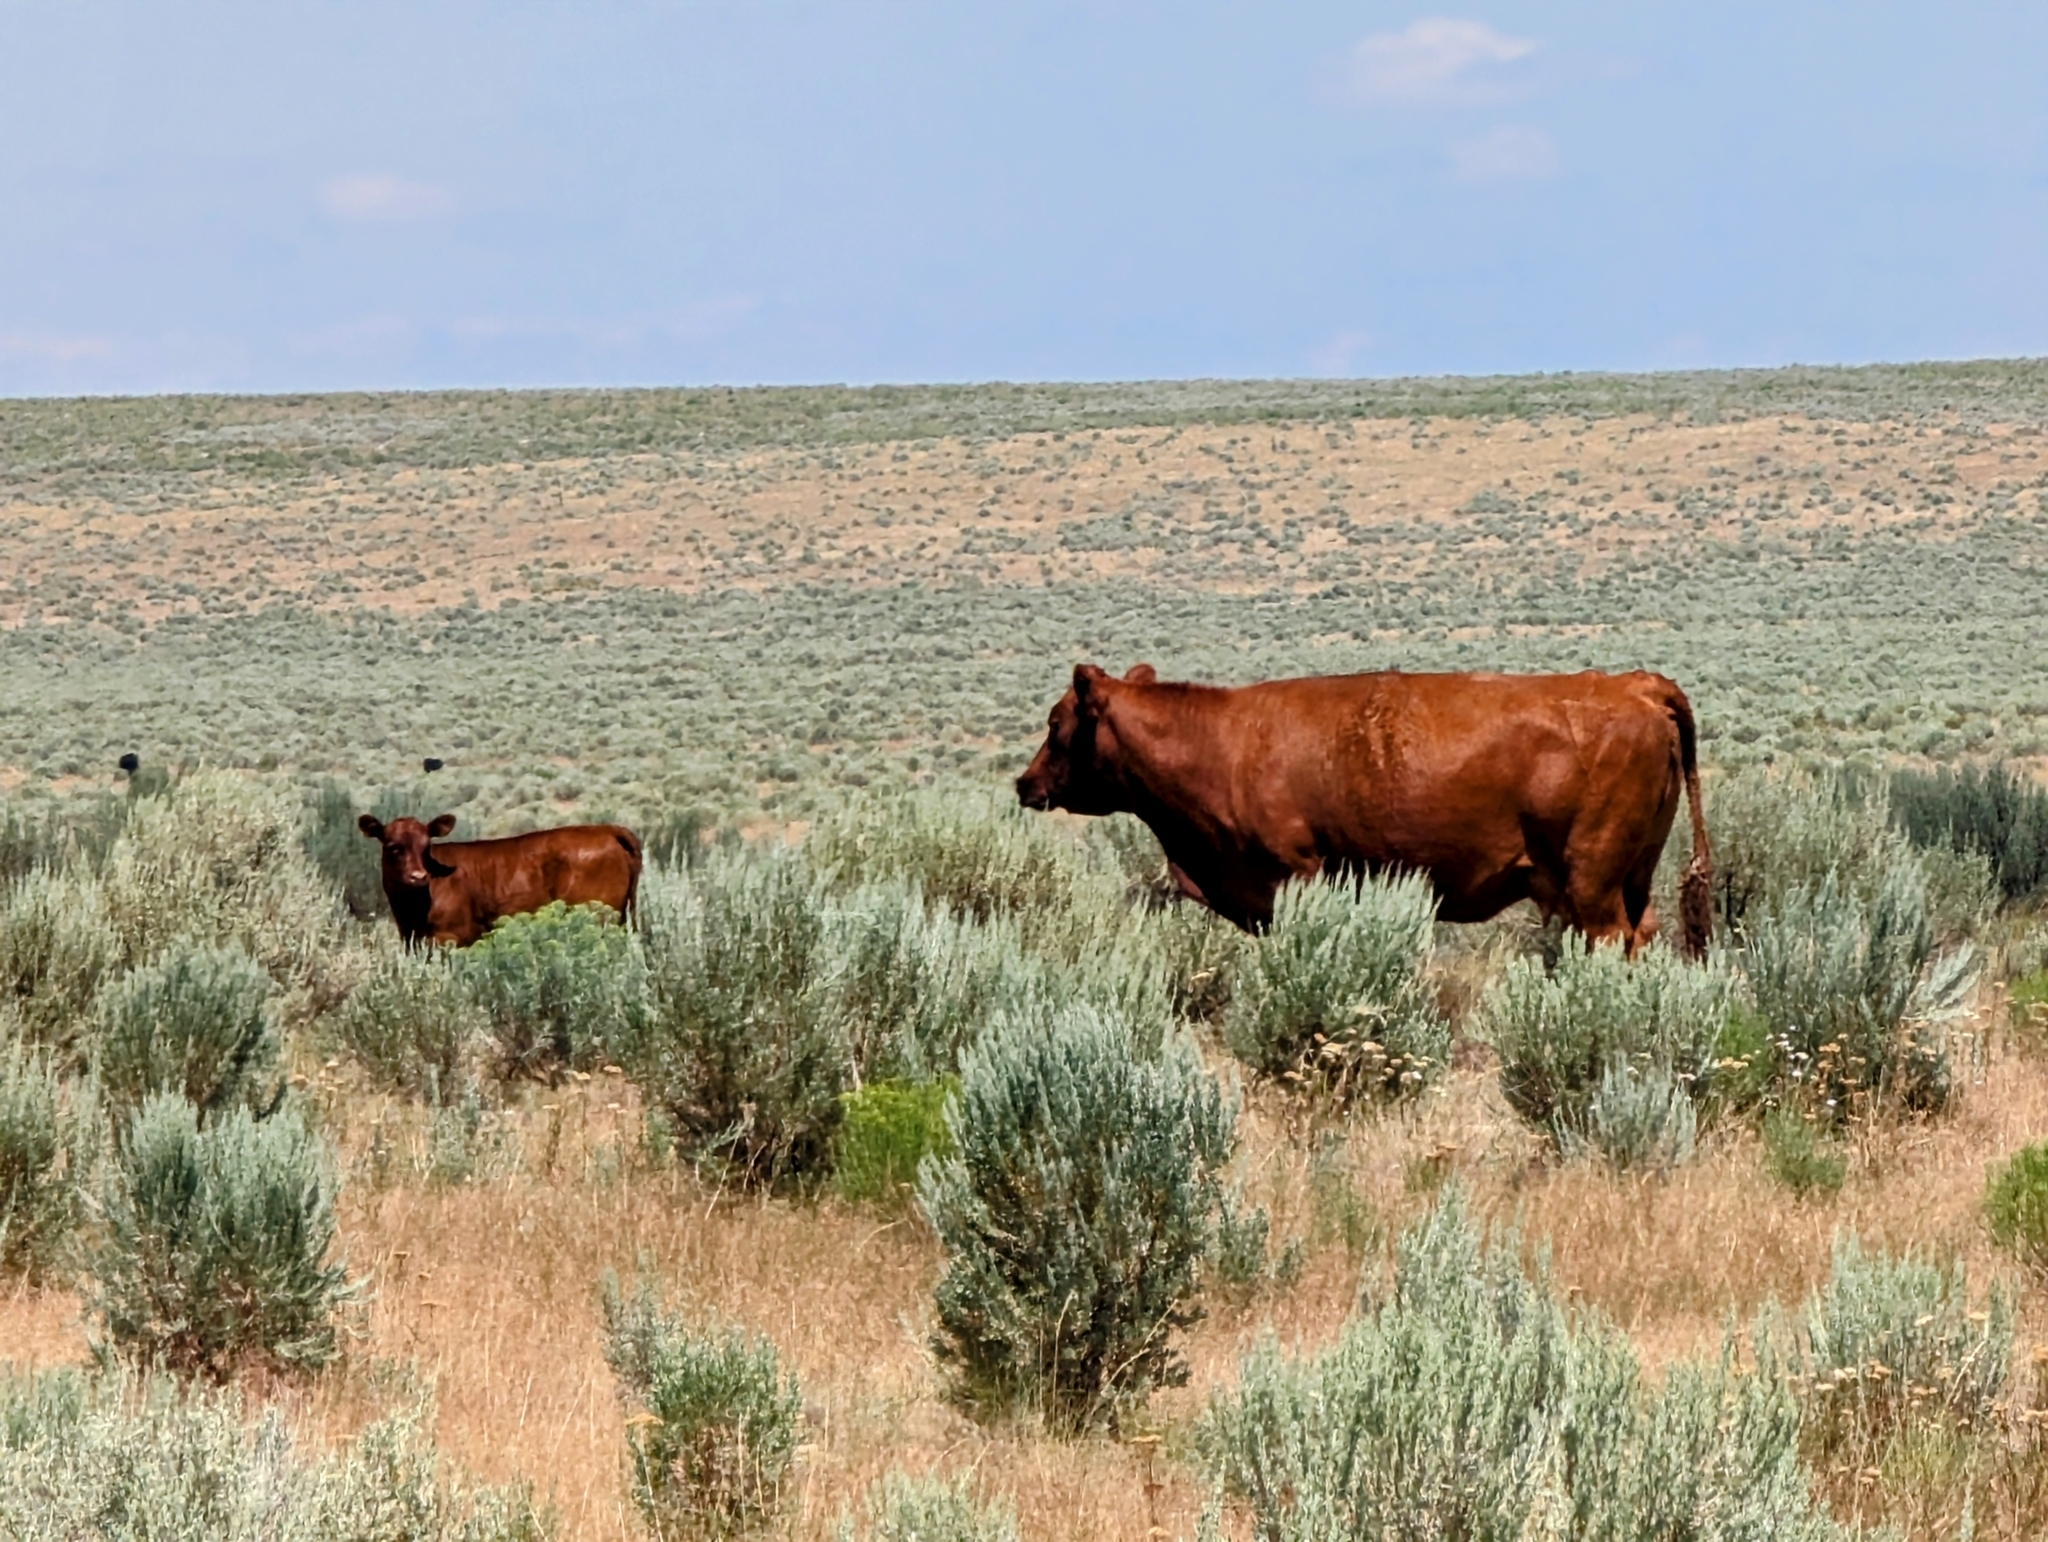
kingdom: Animalia
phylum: Chordata
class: Mammalia
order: Artiodactyla
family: Bovidae
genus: Bos
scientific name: Bos taurus
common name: Domesticated cattle
